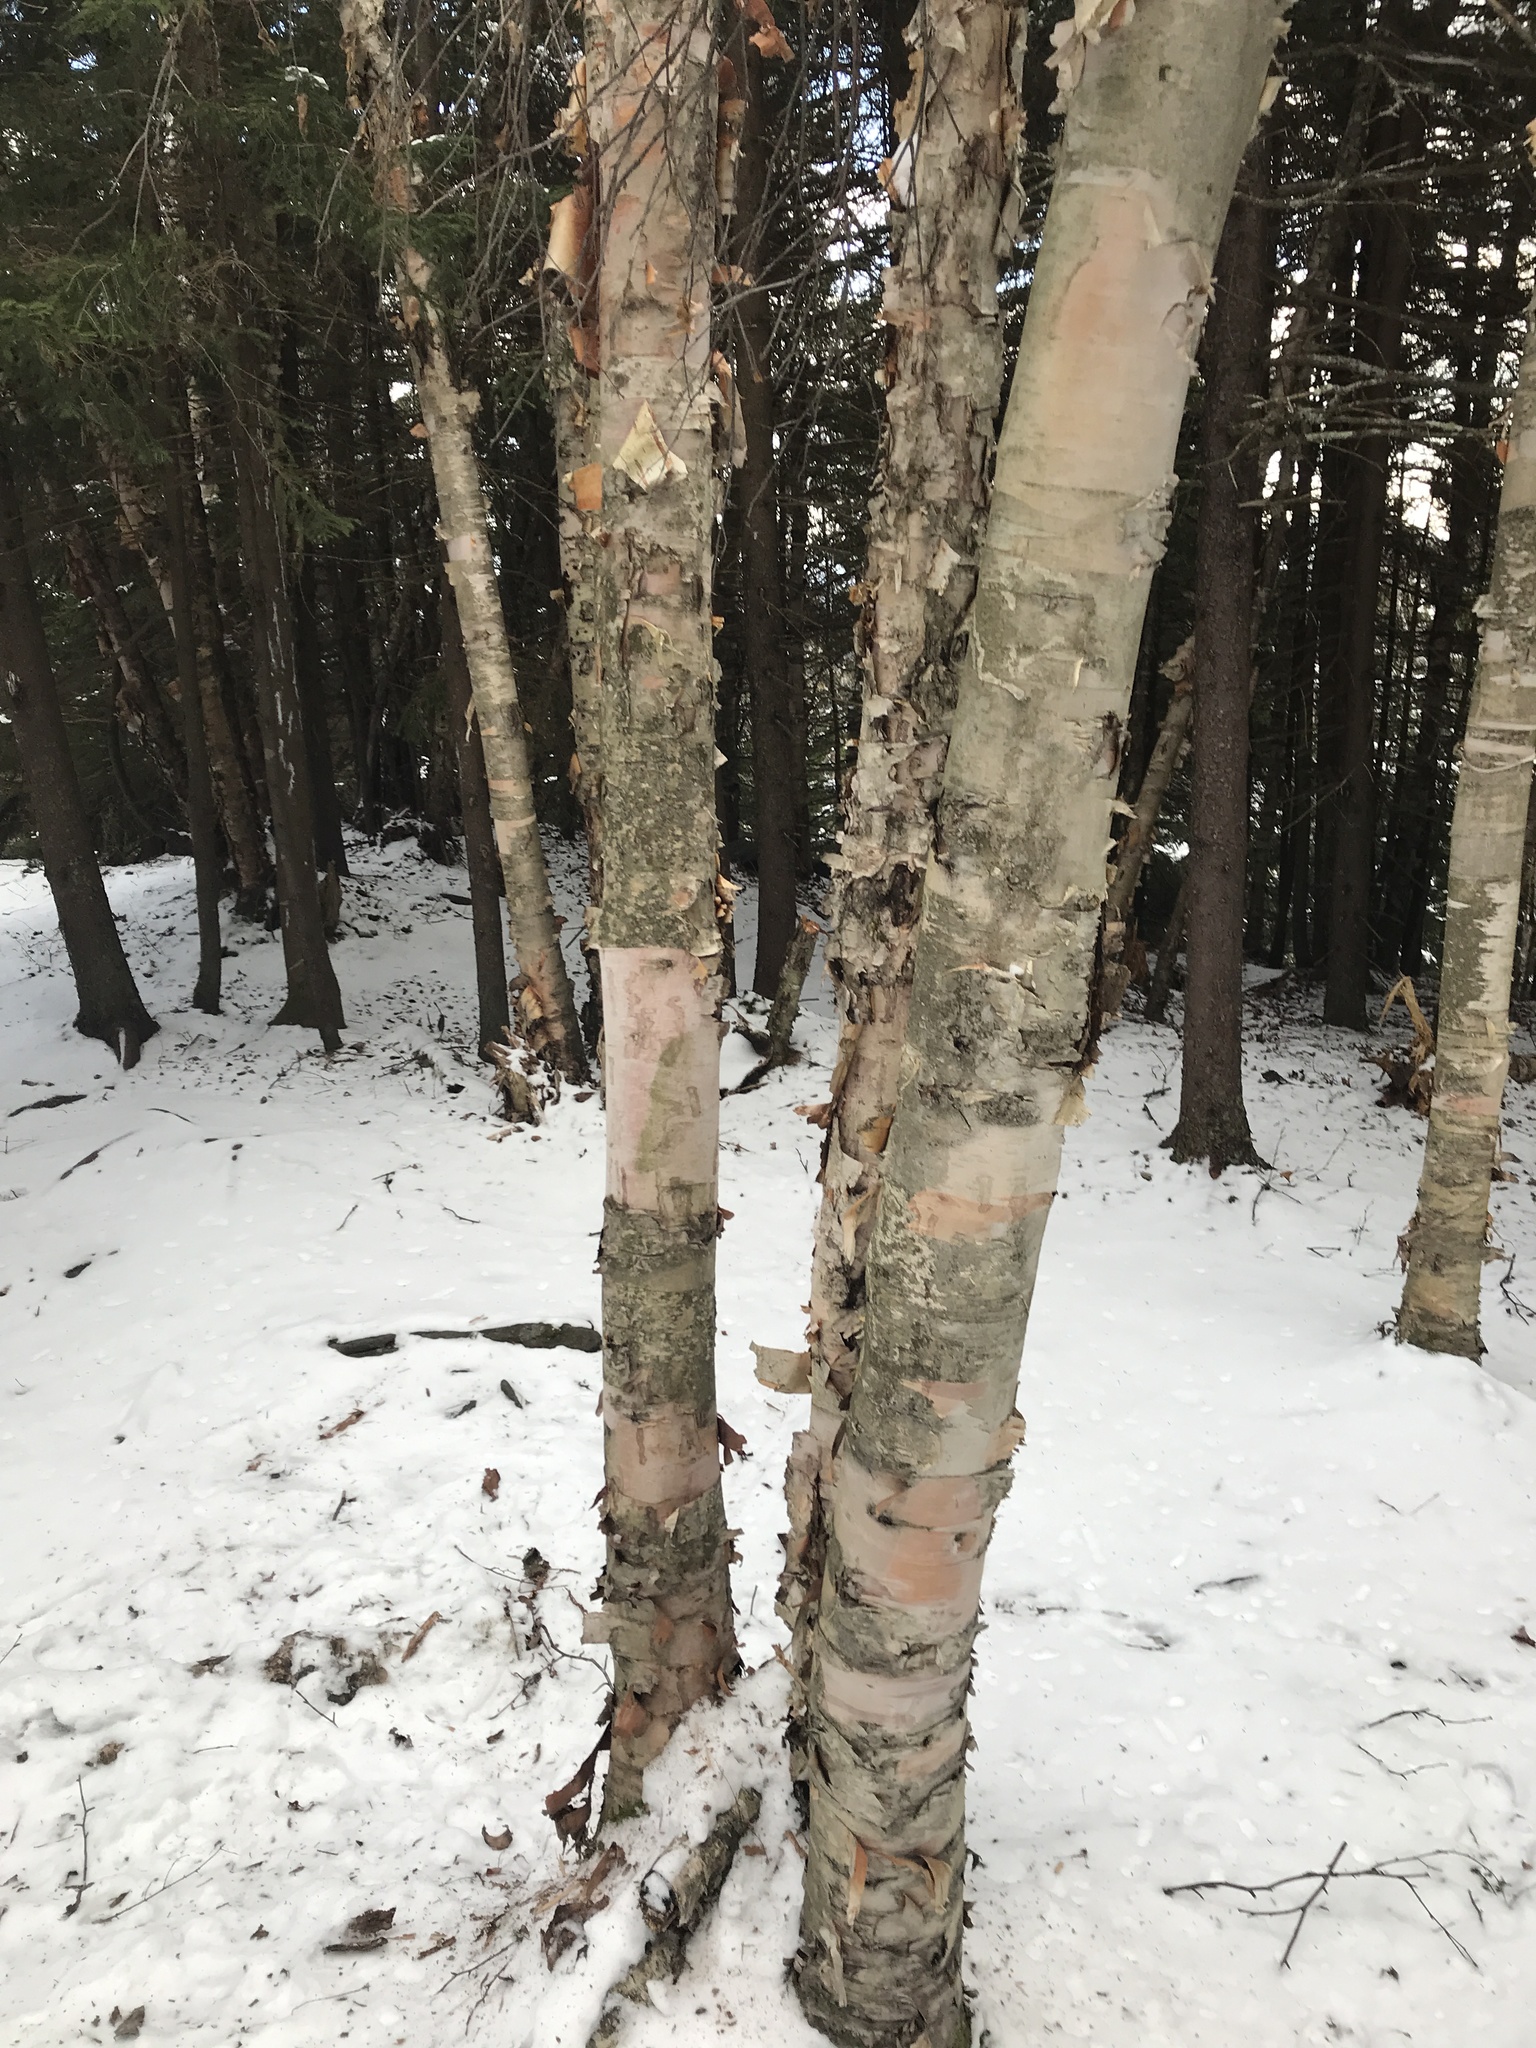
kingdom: Plantae
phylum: Tracheophyta
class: Magnoliopsida
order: Fagales
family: Betulaceae
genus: Betula
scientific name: Betula cordifolia
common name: Mountain white birch
